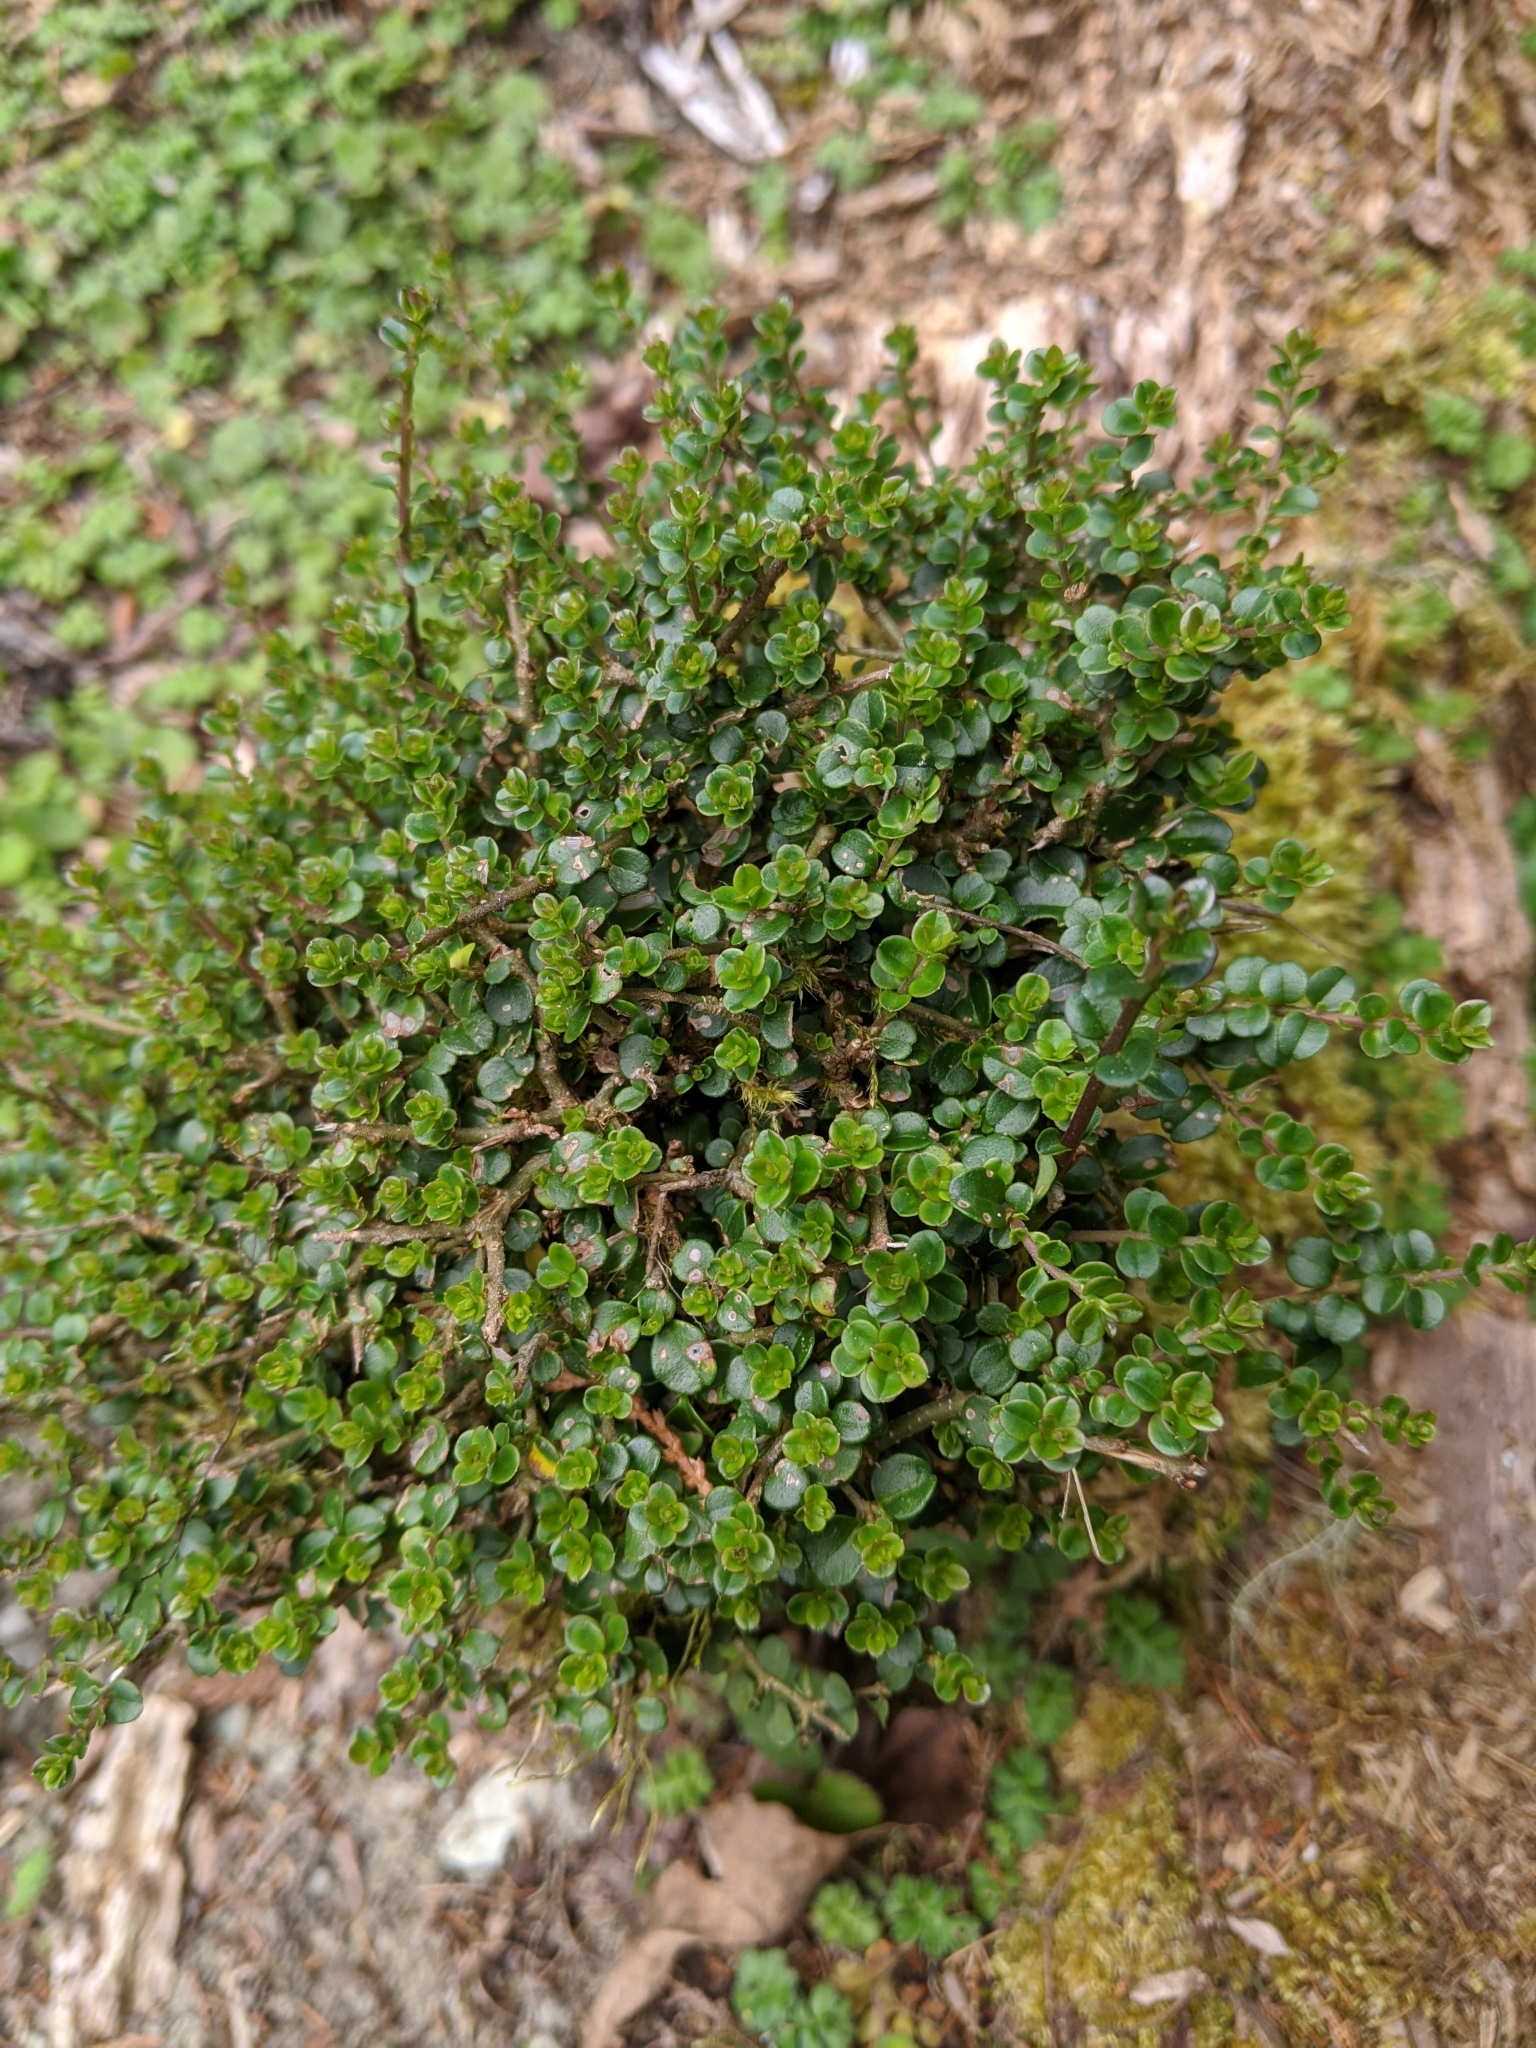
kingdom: Plantae
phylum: Tracheophyta
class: Magnoliopsida
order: Lamiales
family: Oleaceae
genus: Ligustrum
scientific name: Ligustrum morrisonense
